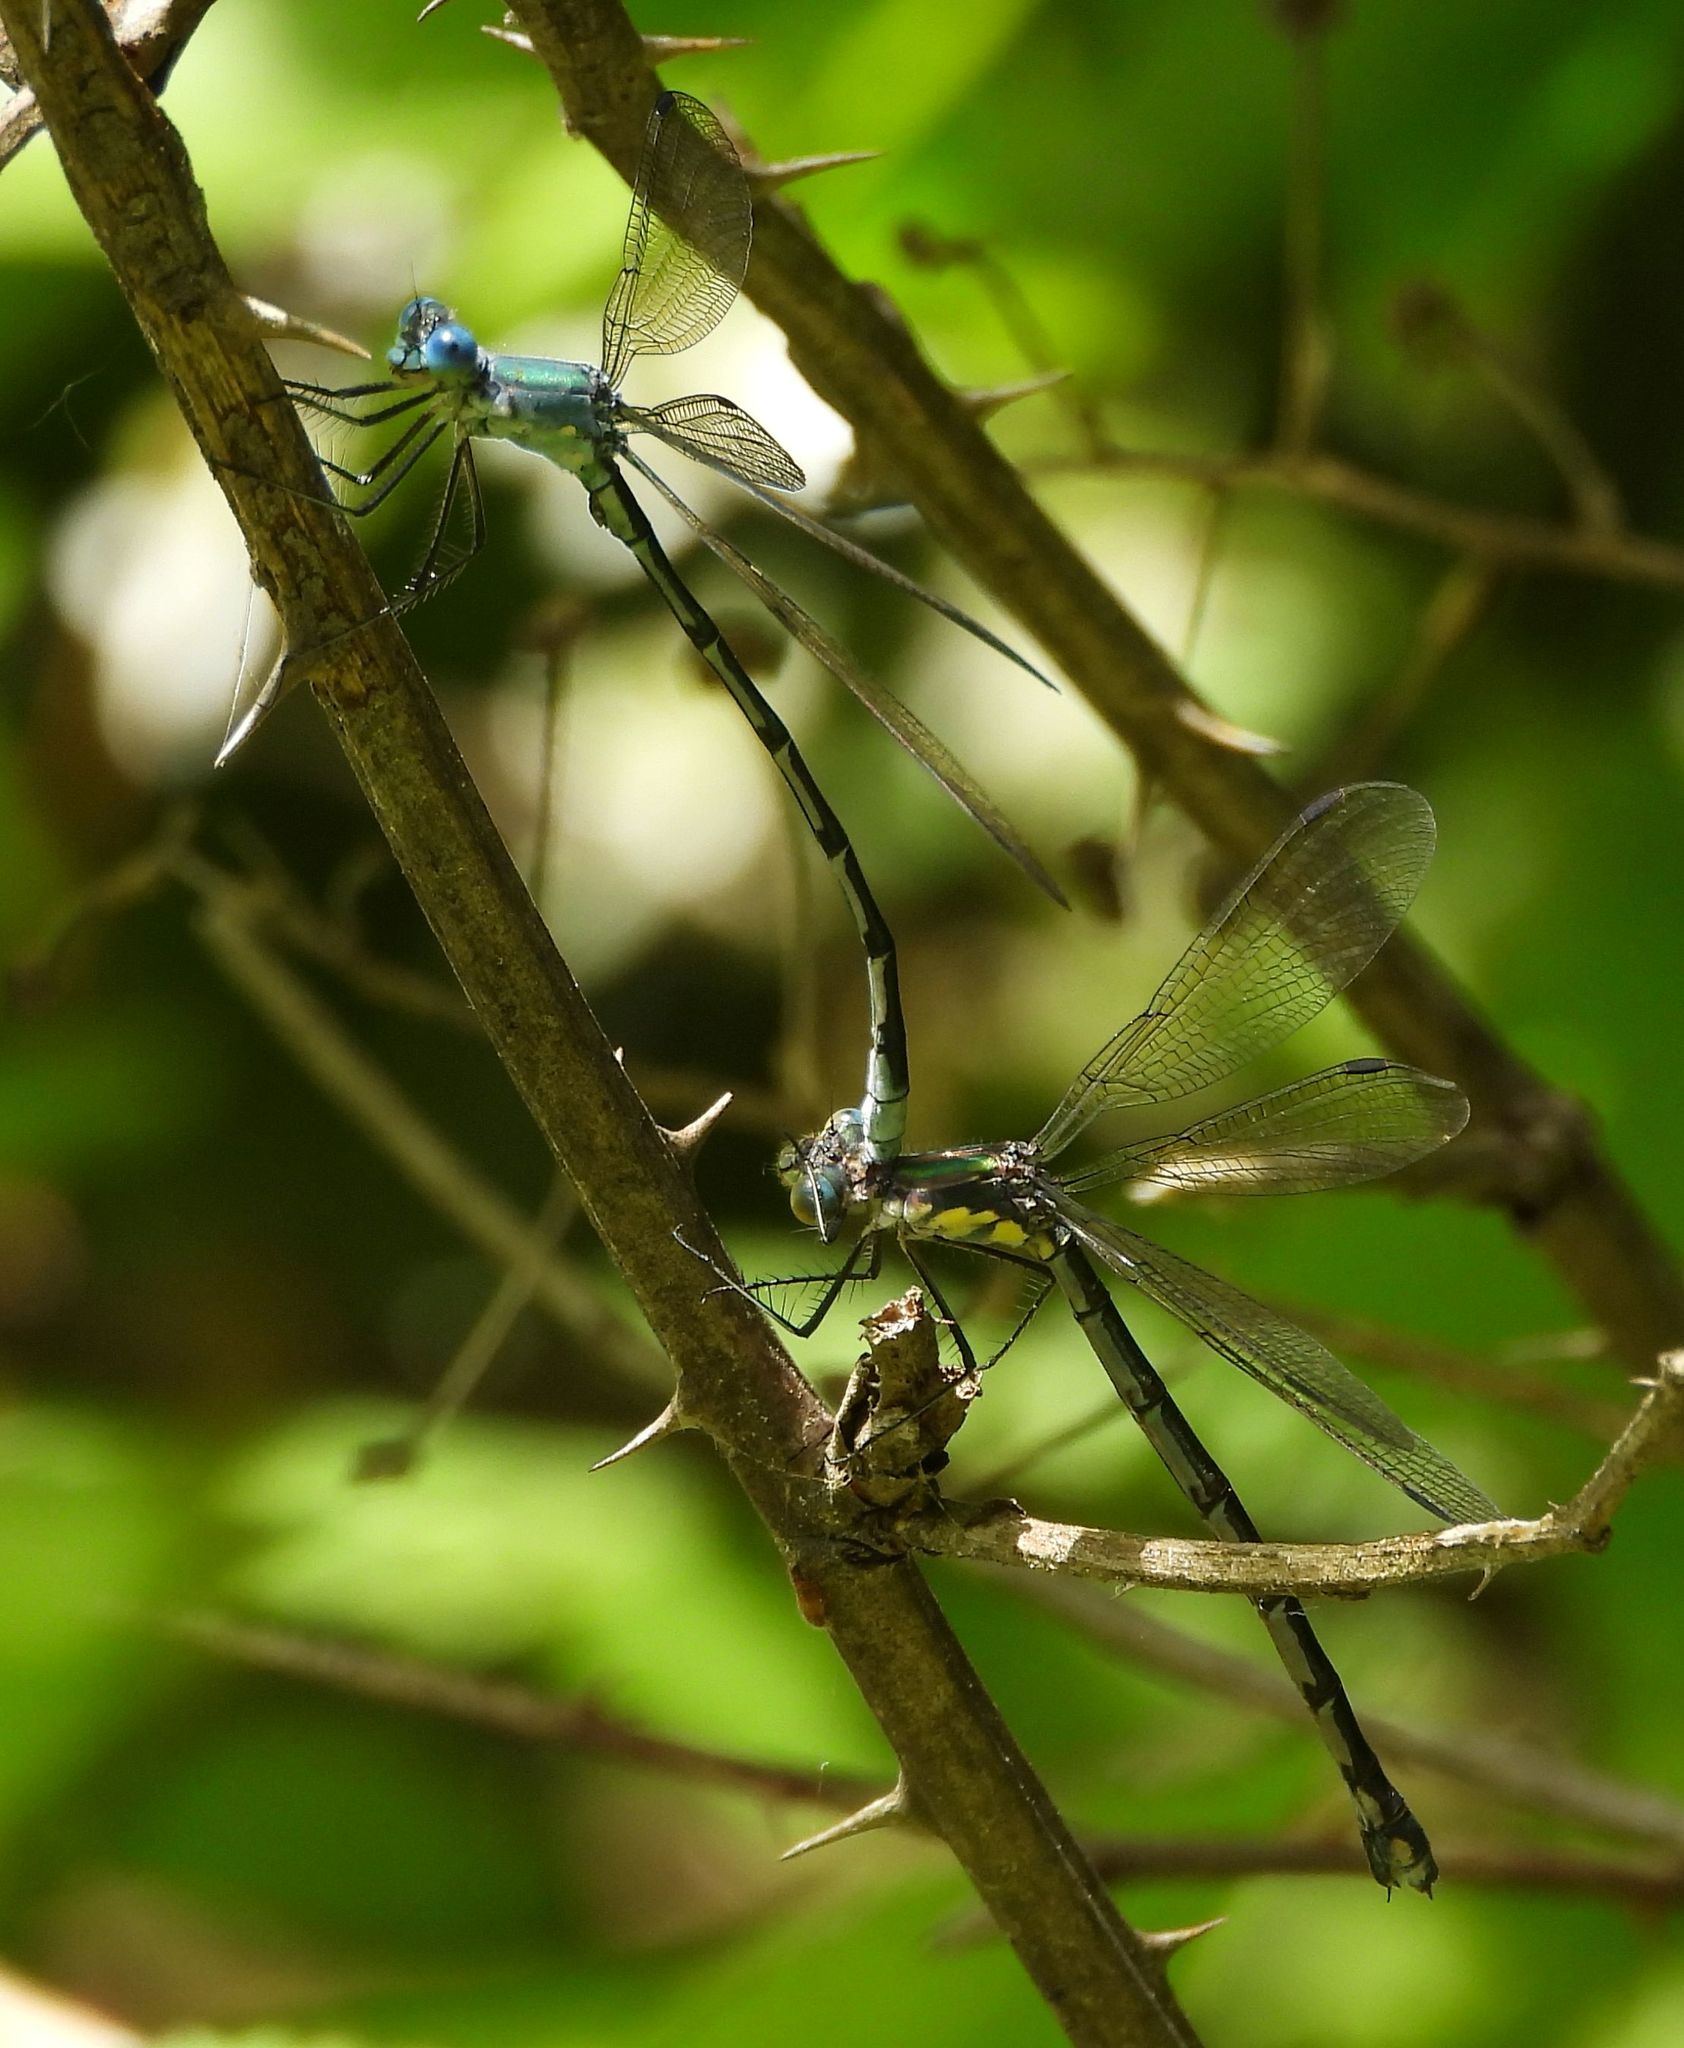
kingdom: Animalia
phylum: Arthropoda
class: Insecta
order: Odonata
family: Lestidae
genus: Lestes
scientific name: Lestes eurinus
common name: Amber-winged spreadwing
